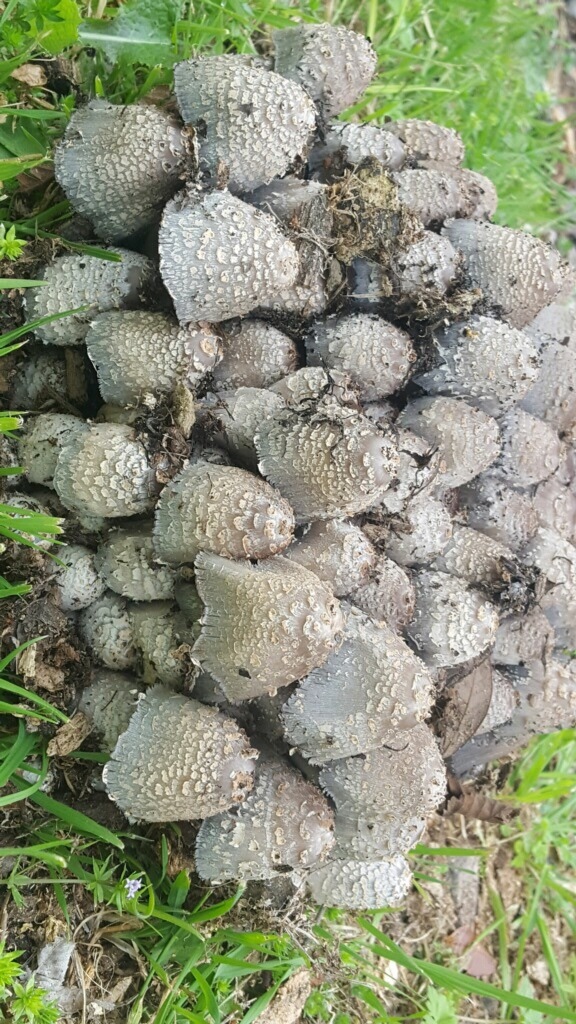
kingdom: Fungi
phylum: Basidiomycota
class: Agaricomycetes
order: Agaricales
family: Psathyrellaceae
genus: Coprinopsis
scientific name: Coprinopsis variegata
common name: Scaly ink cap
